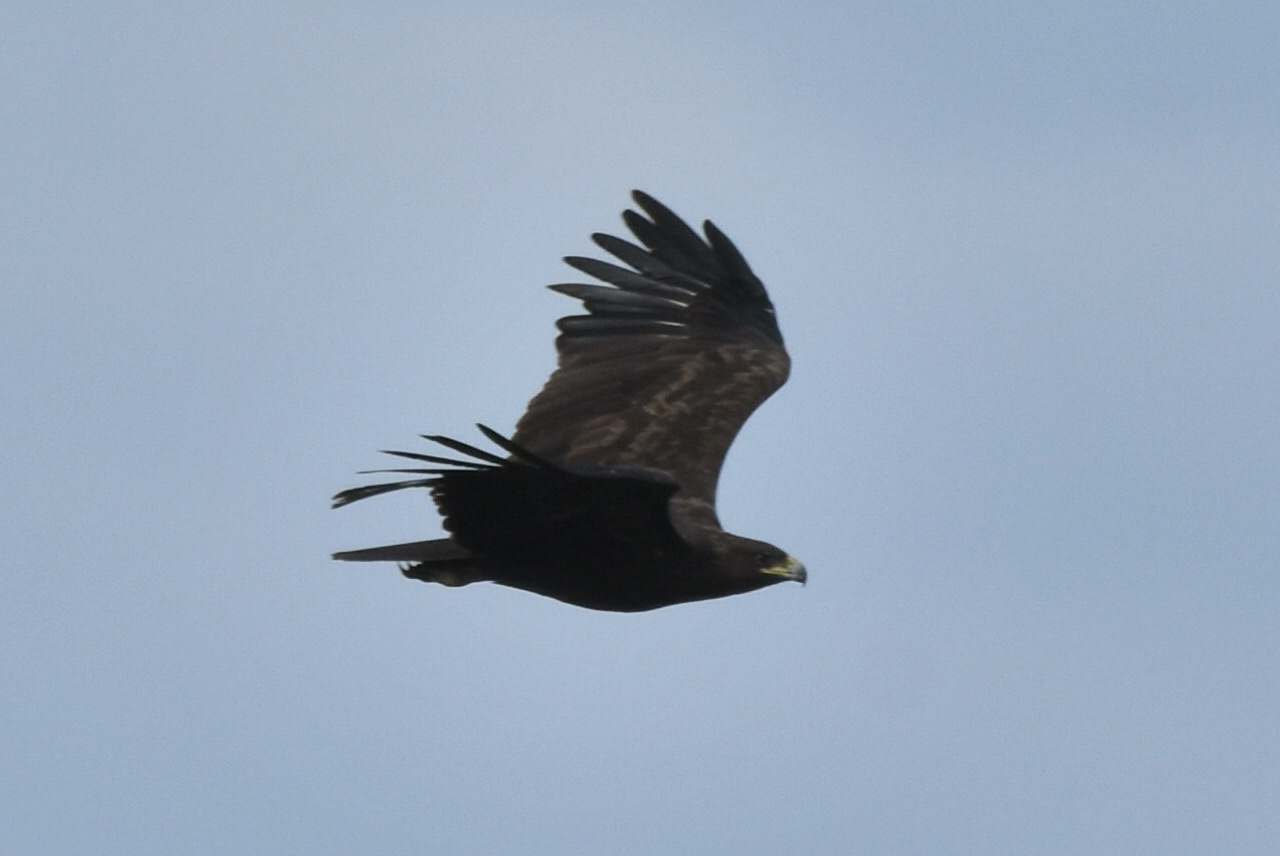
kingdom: Animalia
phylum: Chordata
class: Aves
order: Accipitriformes
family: Accipitridae
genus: Aquila
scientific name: Aquila clanga
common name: Greater spotted eagle
